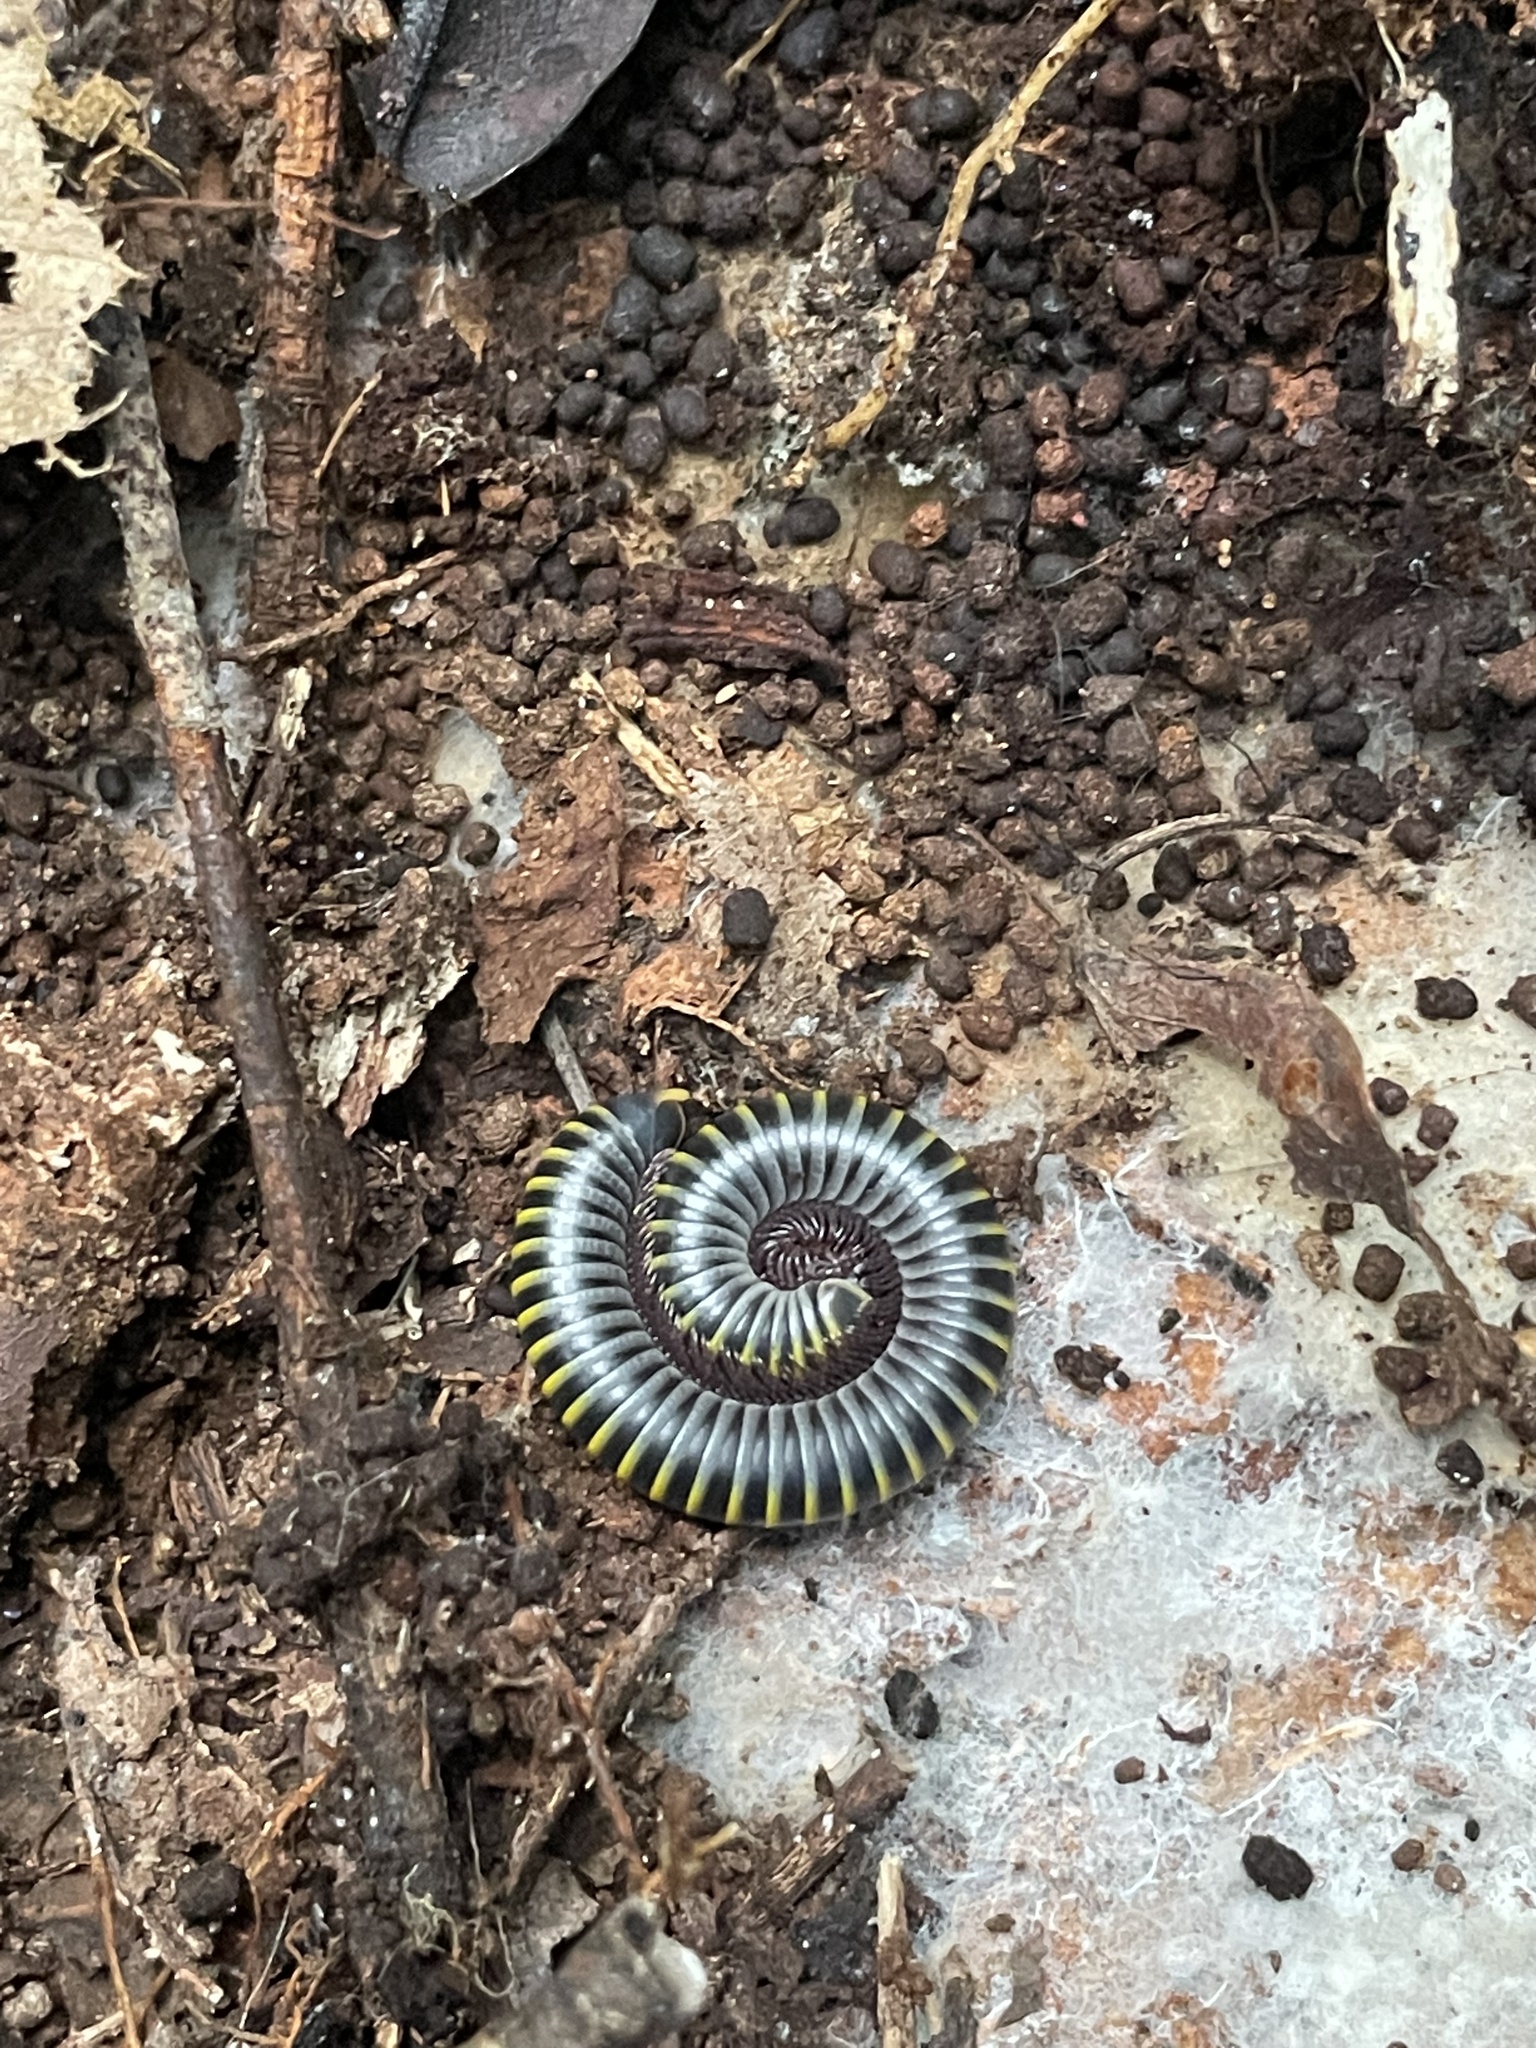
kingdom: Animalia
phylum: Arthropoda
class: Diplopoda
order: Spirobolida
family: Rhinocricidae
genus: Anadenobolus
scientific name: Anadenobolus monilicornis
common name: Caribbean millipede
